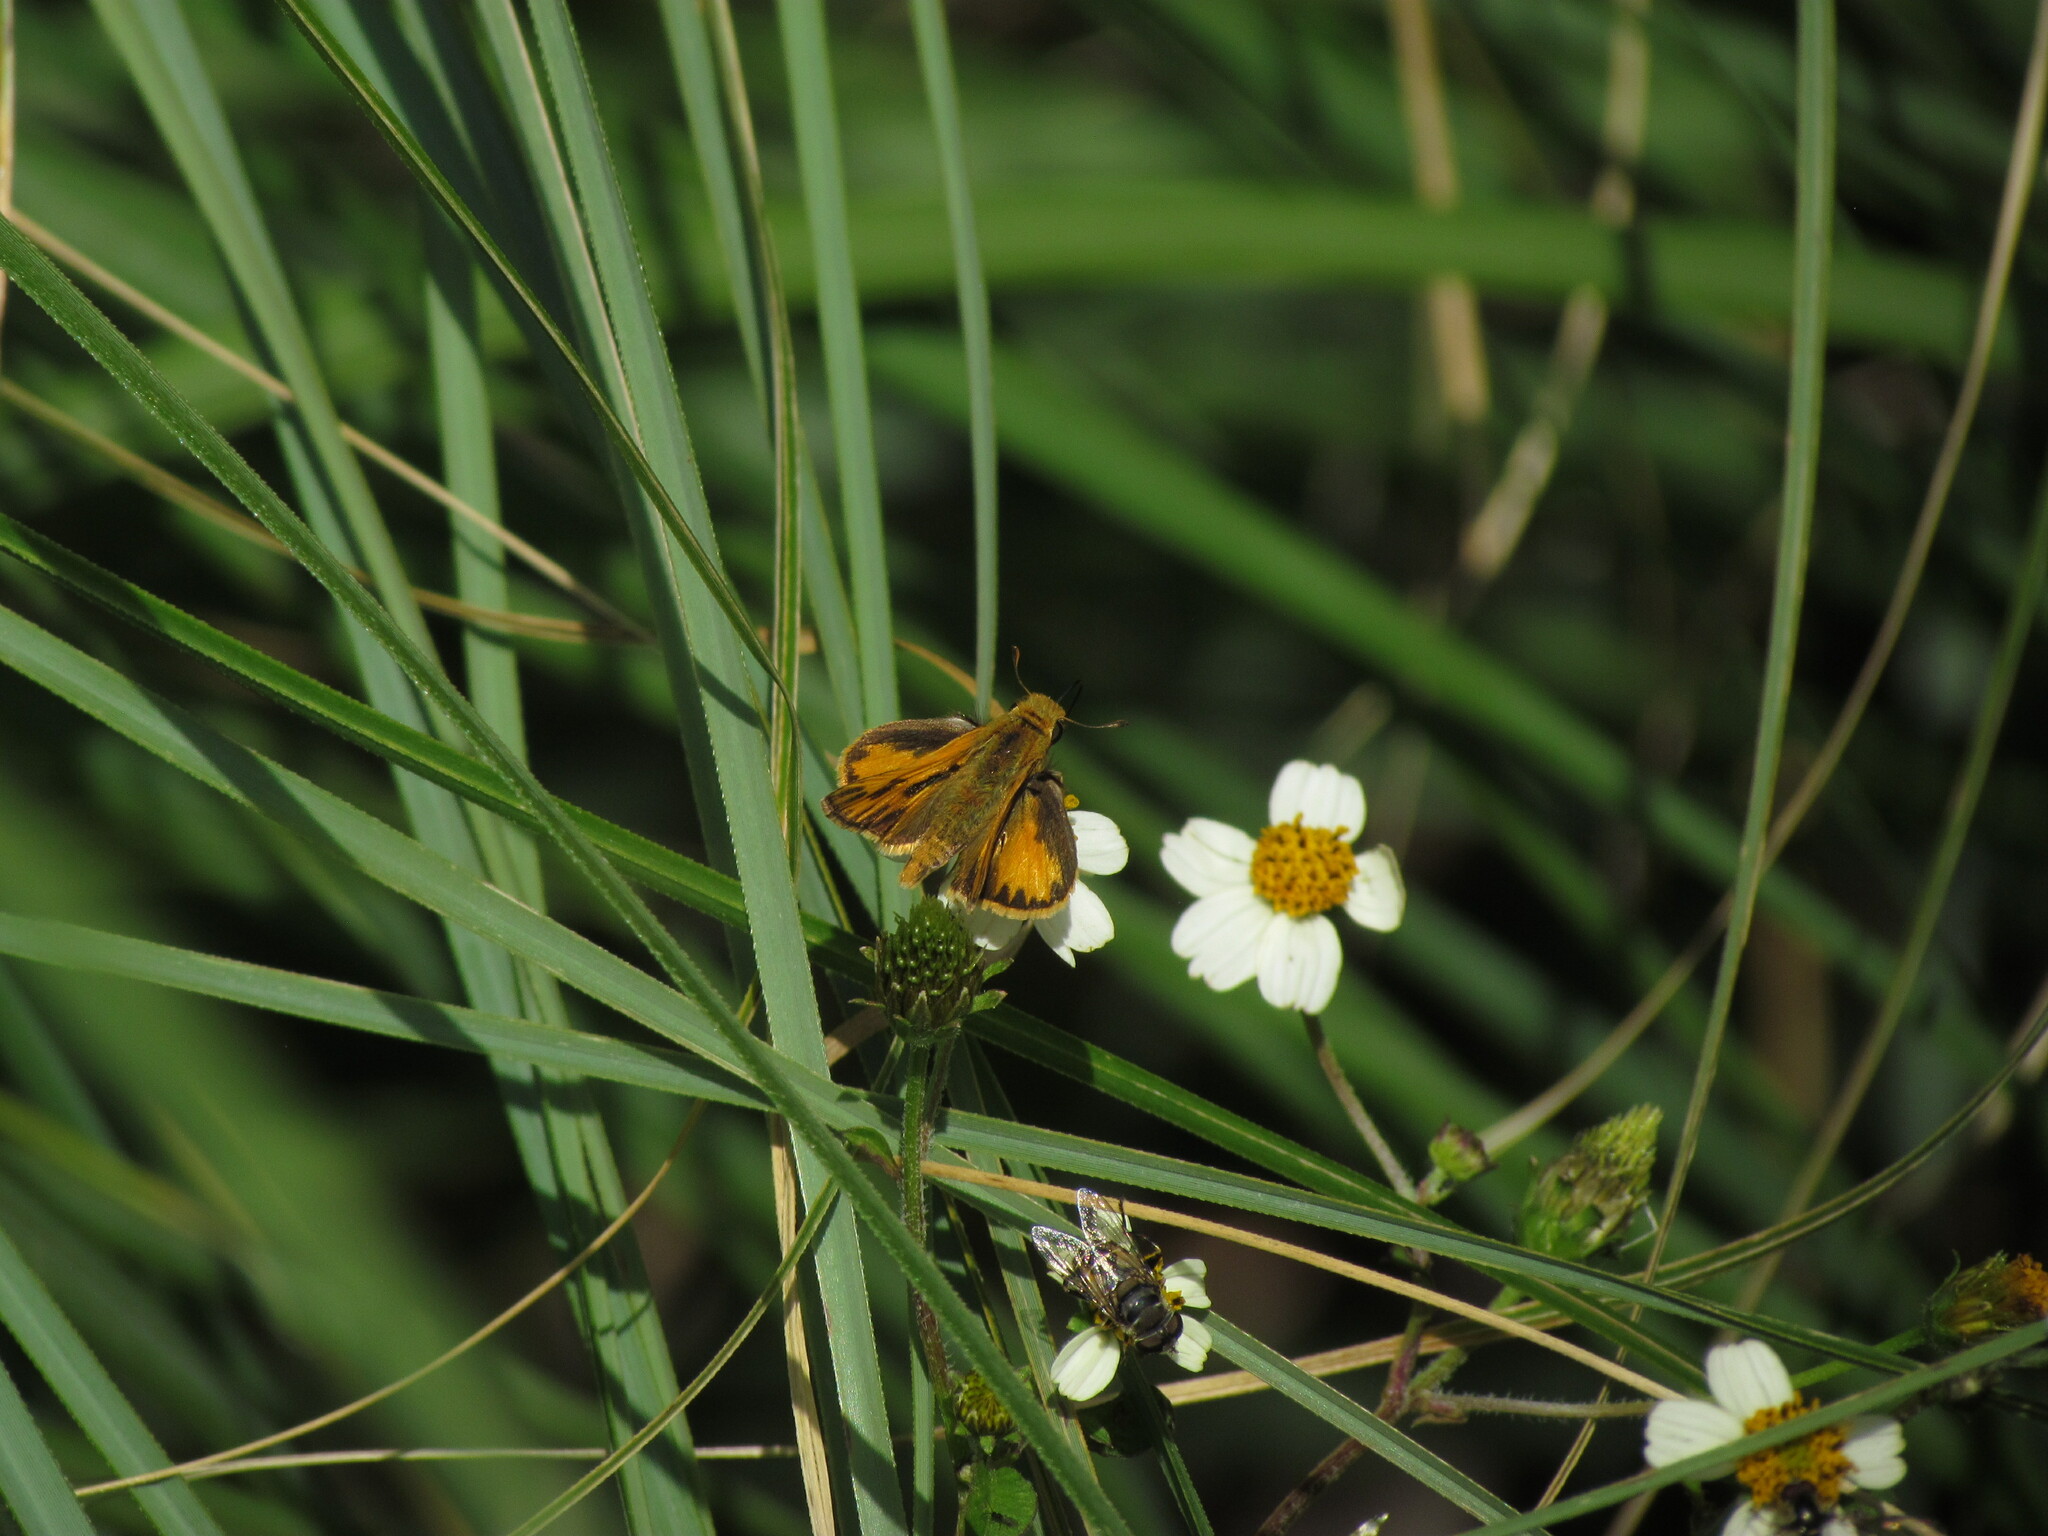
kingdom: Animalia
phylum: Arthropoda
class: Insecta
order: Lepidoptera
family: Hesperiidae
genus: Hylephila
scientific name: Hylephila phyleus
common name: Fiery skipper
